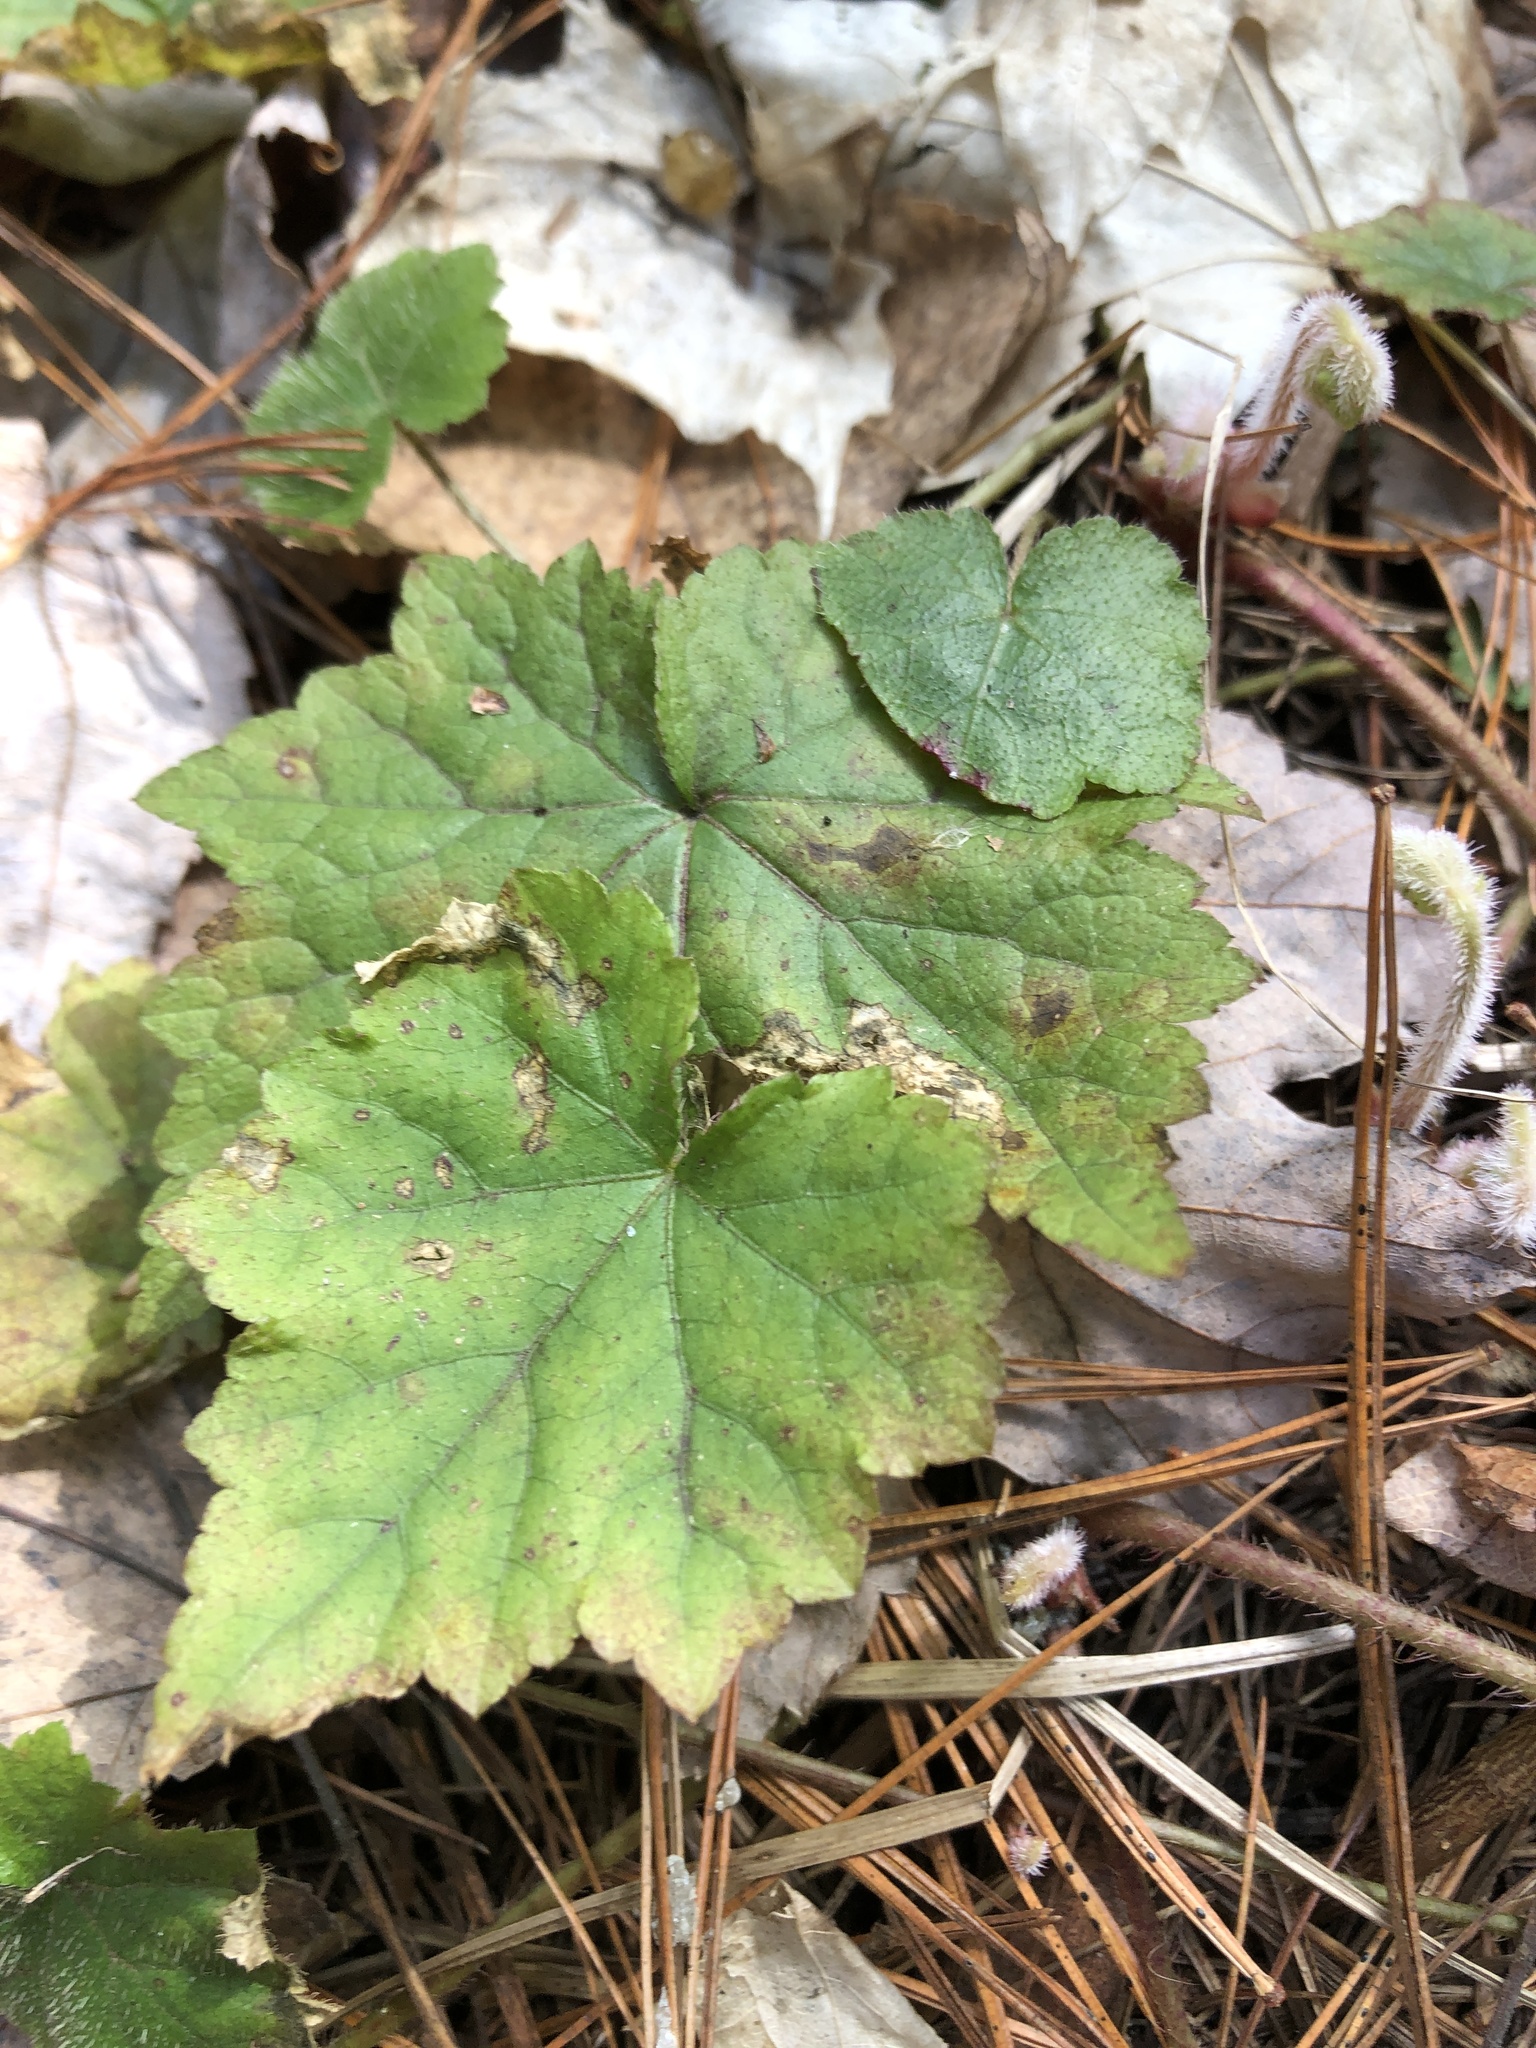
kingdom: Plantae
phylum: Tracheophyta
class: Magnoliopsida
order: Saxifragales
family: Saxifragaceae
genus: Tiarella
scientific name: Tiarella stolonifera
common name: Stoloniferous foamflower
